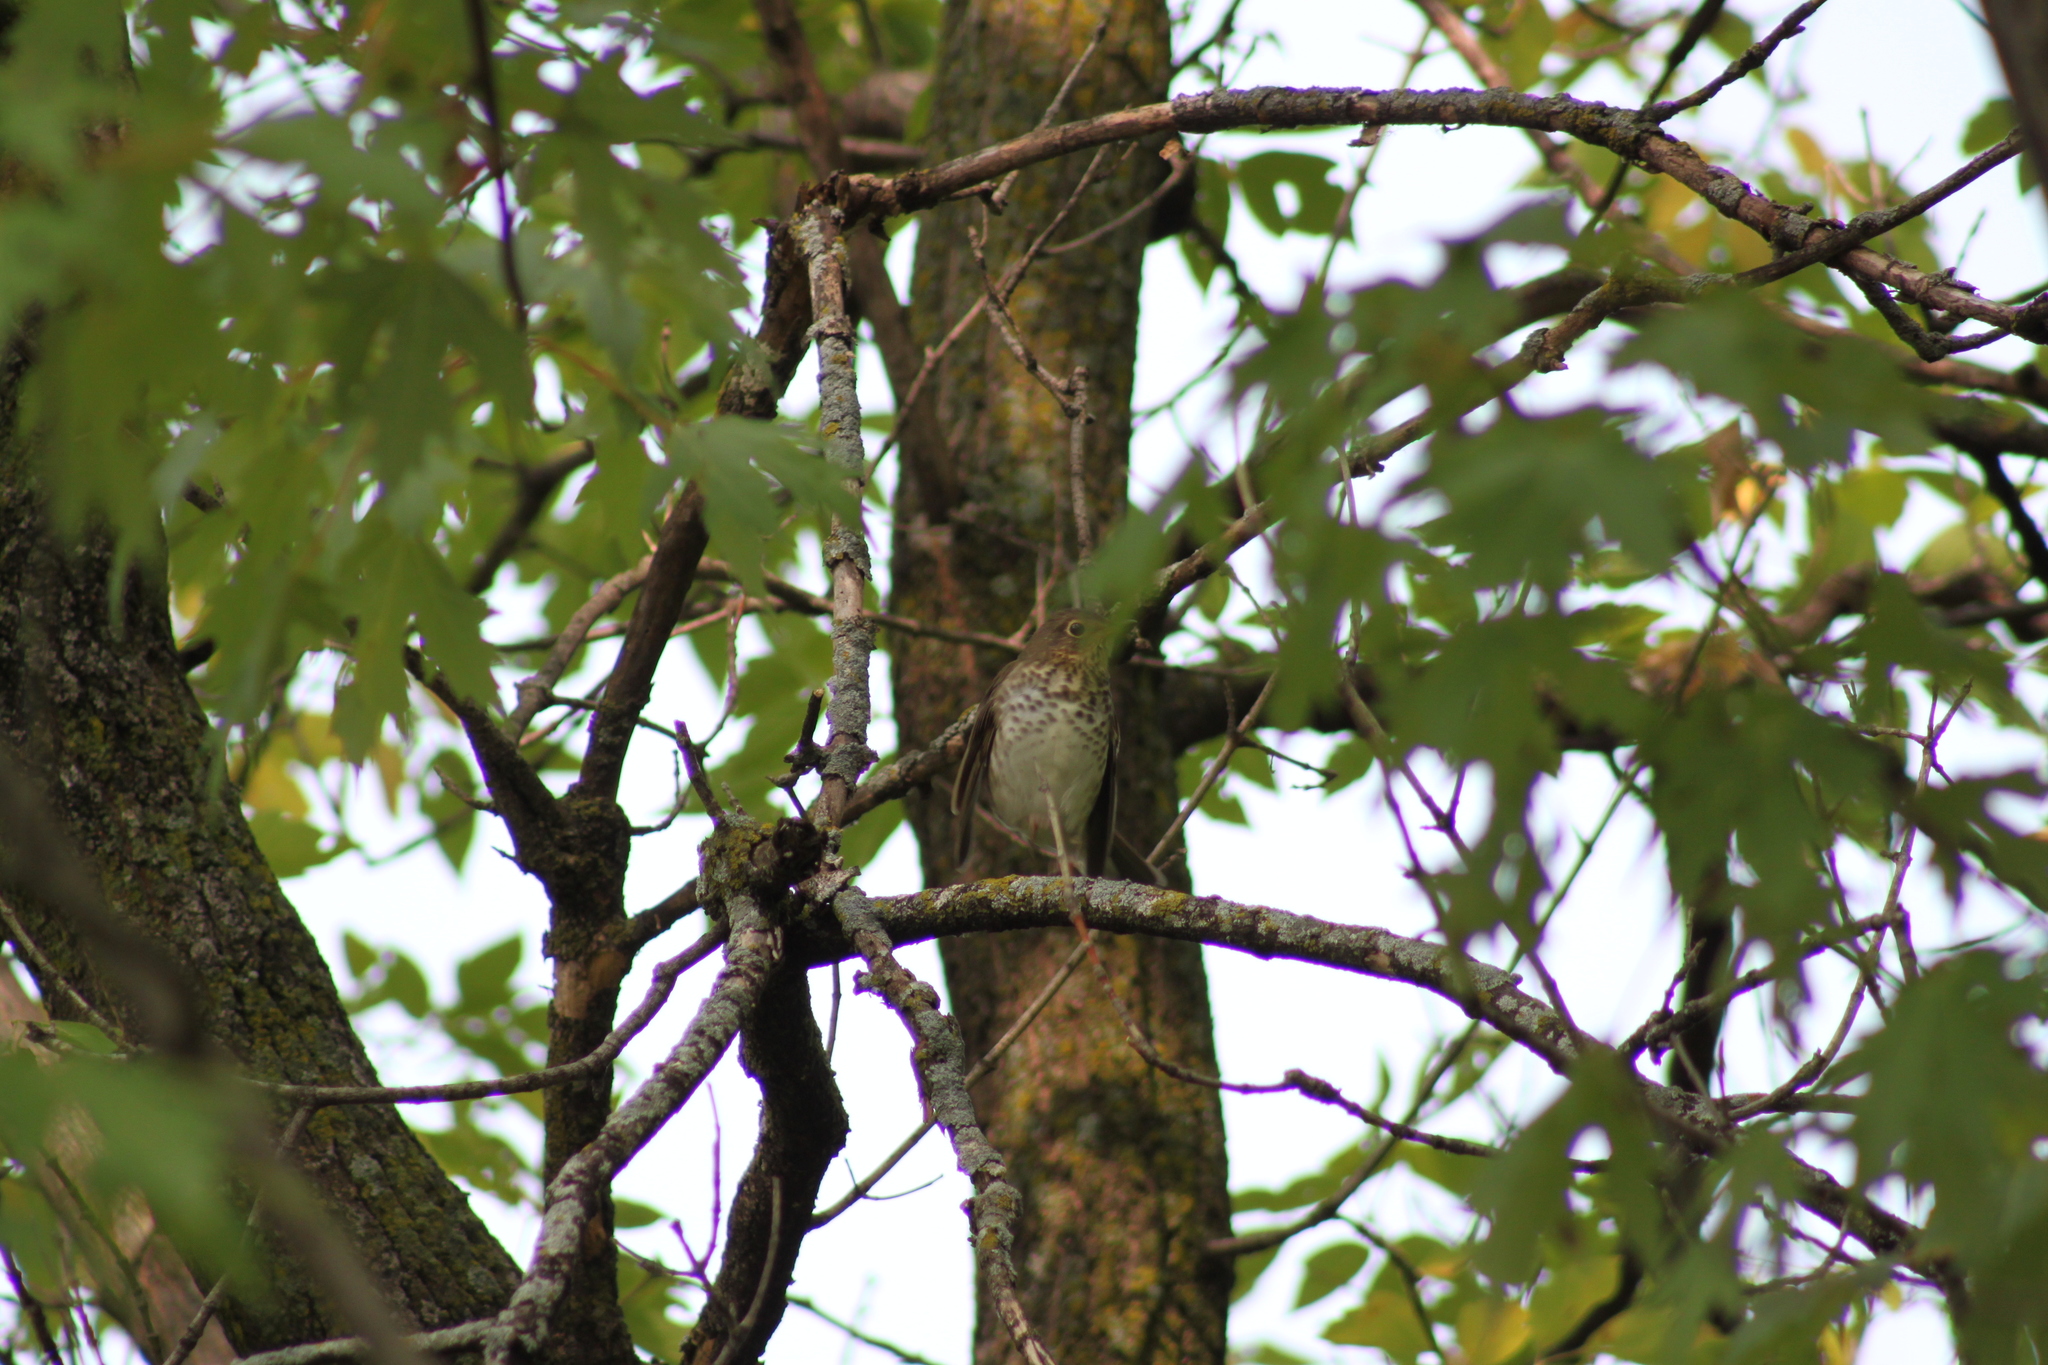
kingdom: Animalia
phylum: Chordata
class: Aves
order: Passeriformes
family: Turdidae
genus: Catharus
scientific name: Catharus ustulatus
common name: Swainson's thrush
